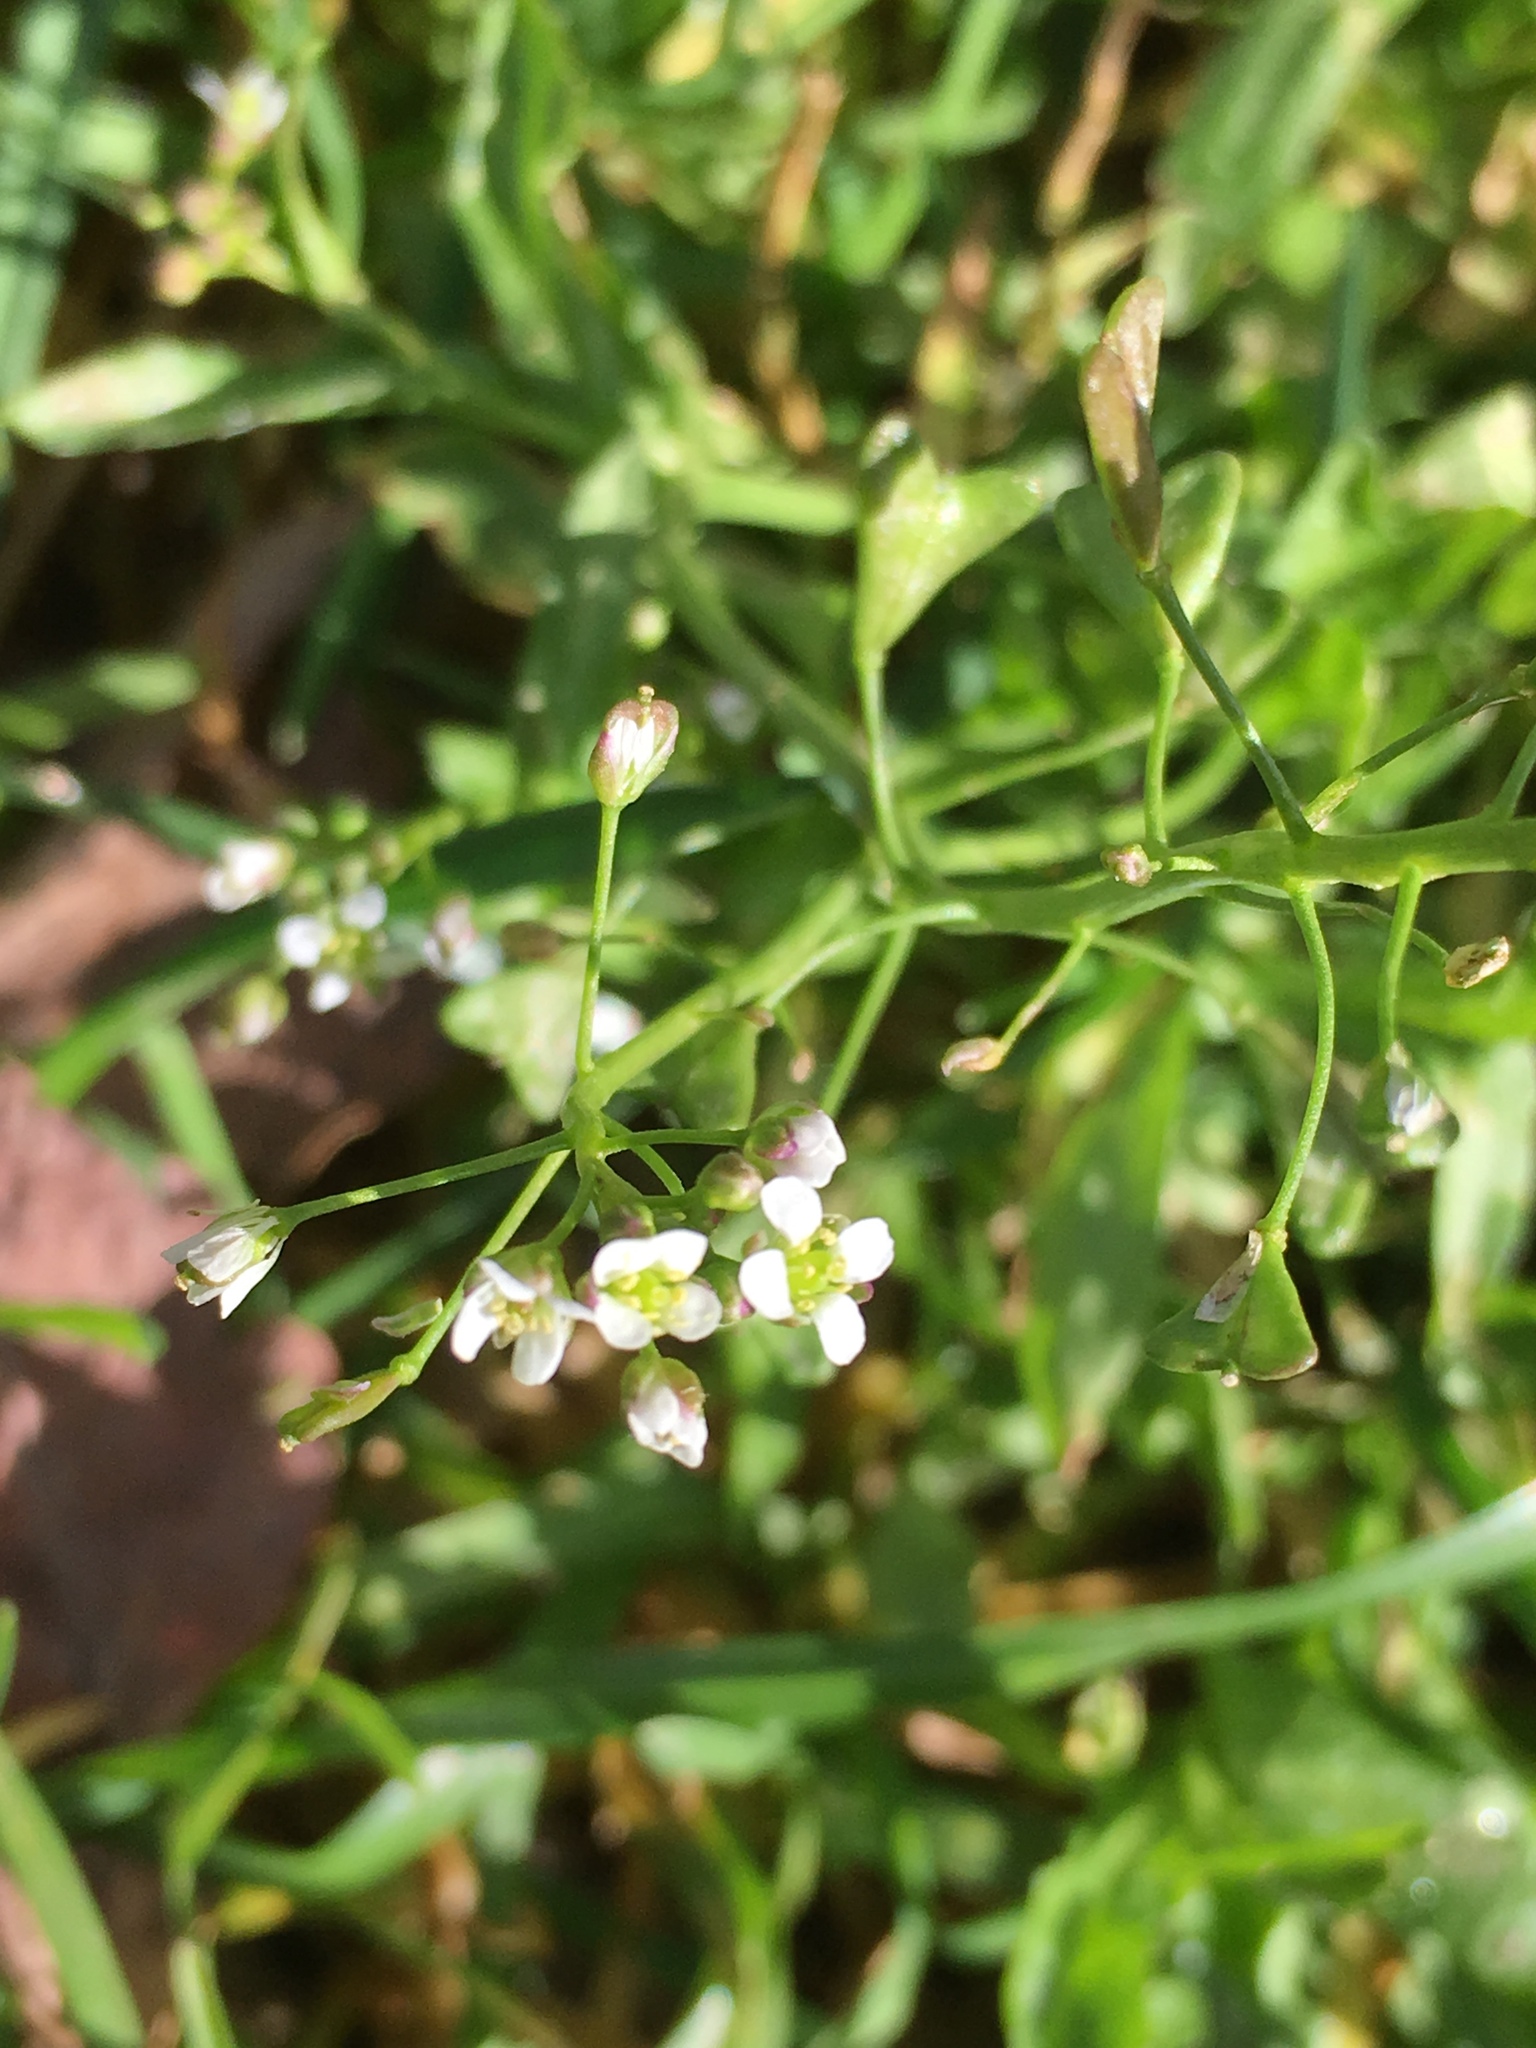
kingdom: Plantae
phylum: Tracheophyta
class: Magnoliopsida
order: Brassicales
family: Brassicaceae
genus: Capsella
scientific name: Capsella bursa-pastoris
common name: Shepherd's purse
